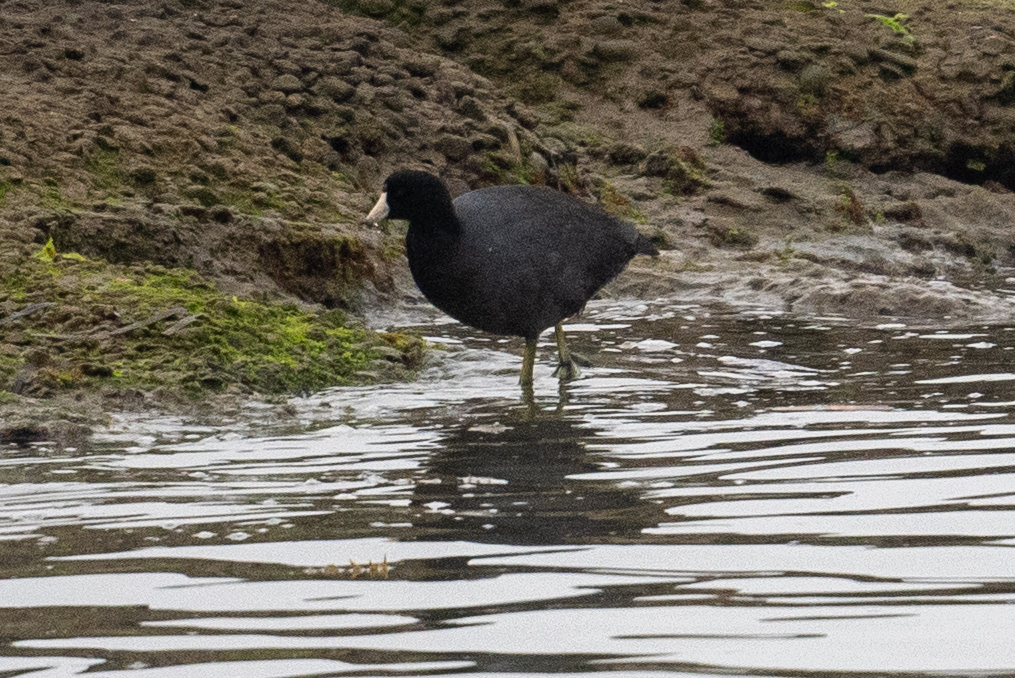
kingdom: Animalia
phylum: Chordata
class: Aves
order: Gruiformes
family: Rallidae
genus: Fulica
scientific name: Fulica americana
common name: American coot
